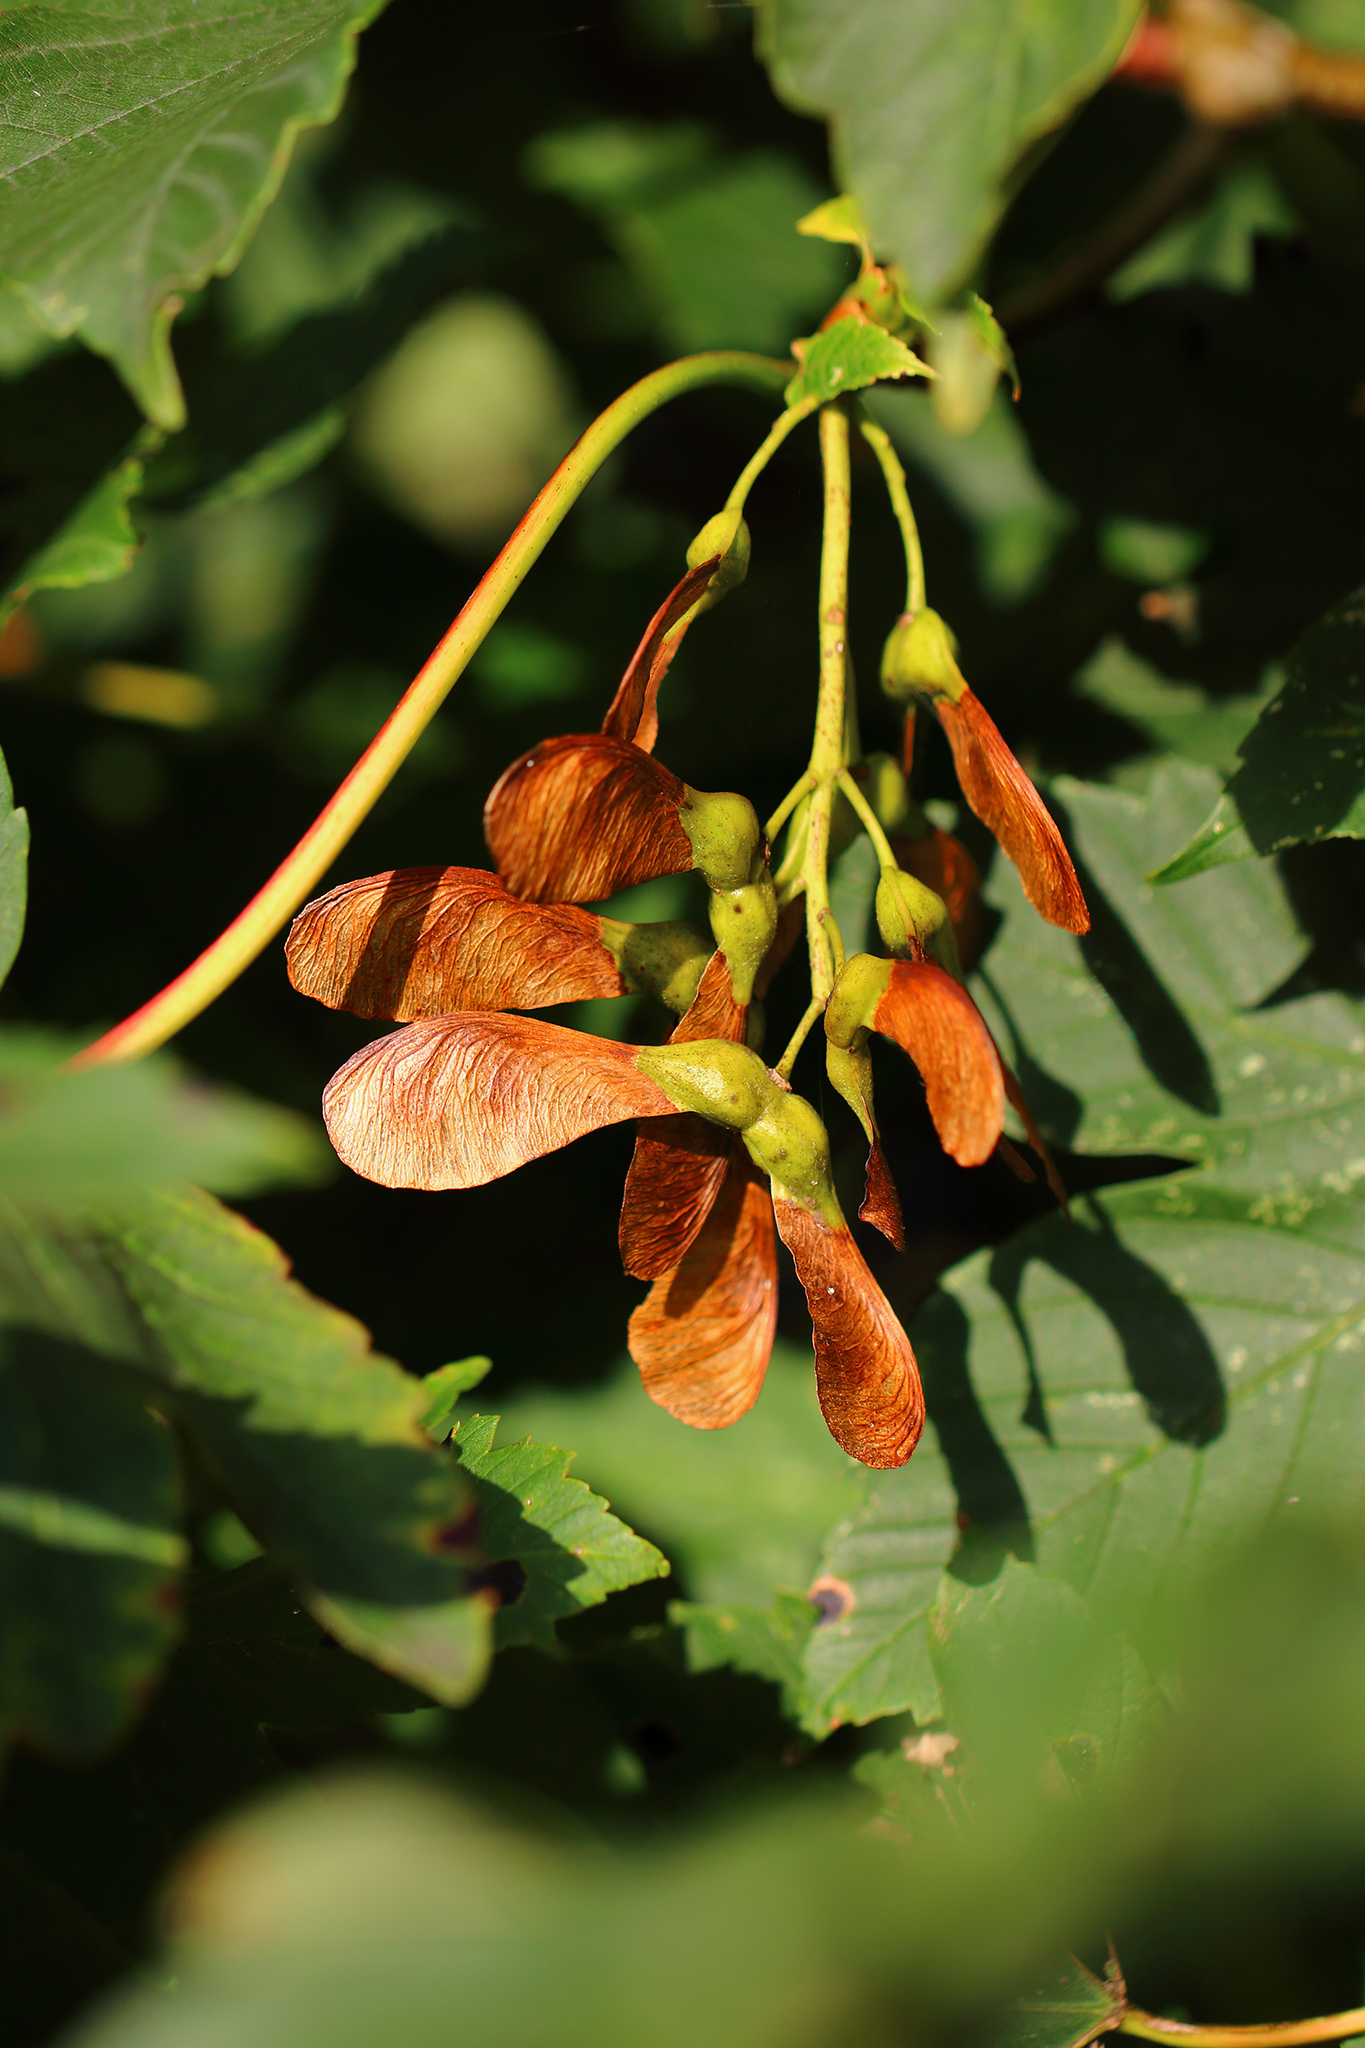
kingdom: Plantae
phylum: Tracheophyta
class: Magnoliopsida
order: Sapindales
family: Sapindaceae
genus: Acer
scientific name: Acer pseudoplatanus
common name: Sycamore
